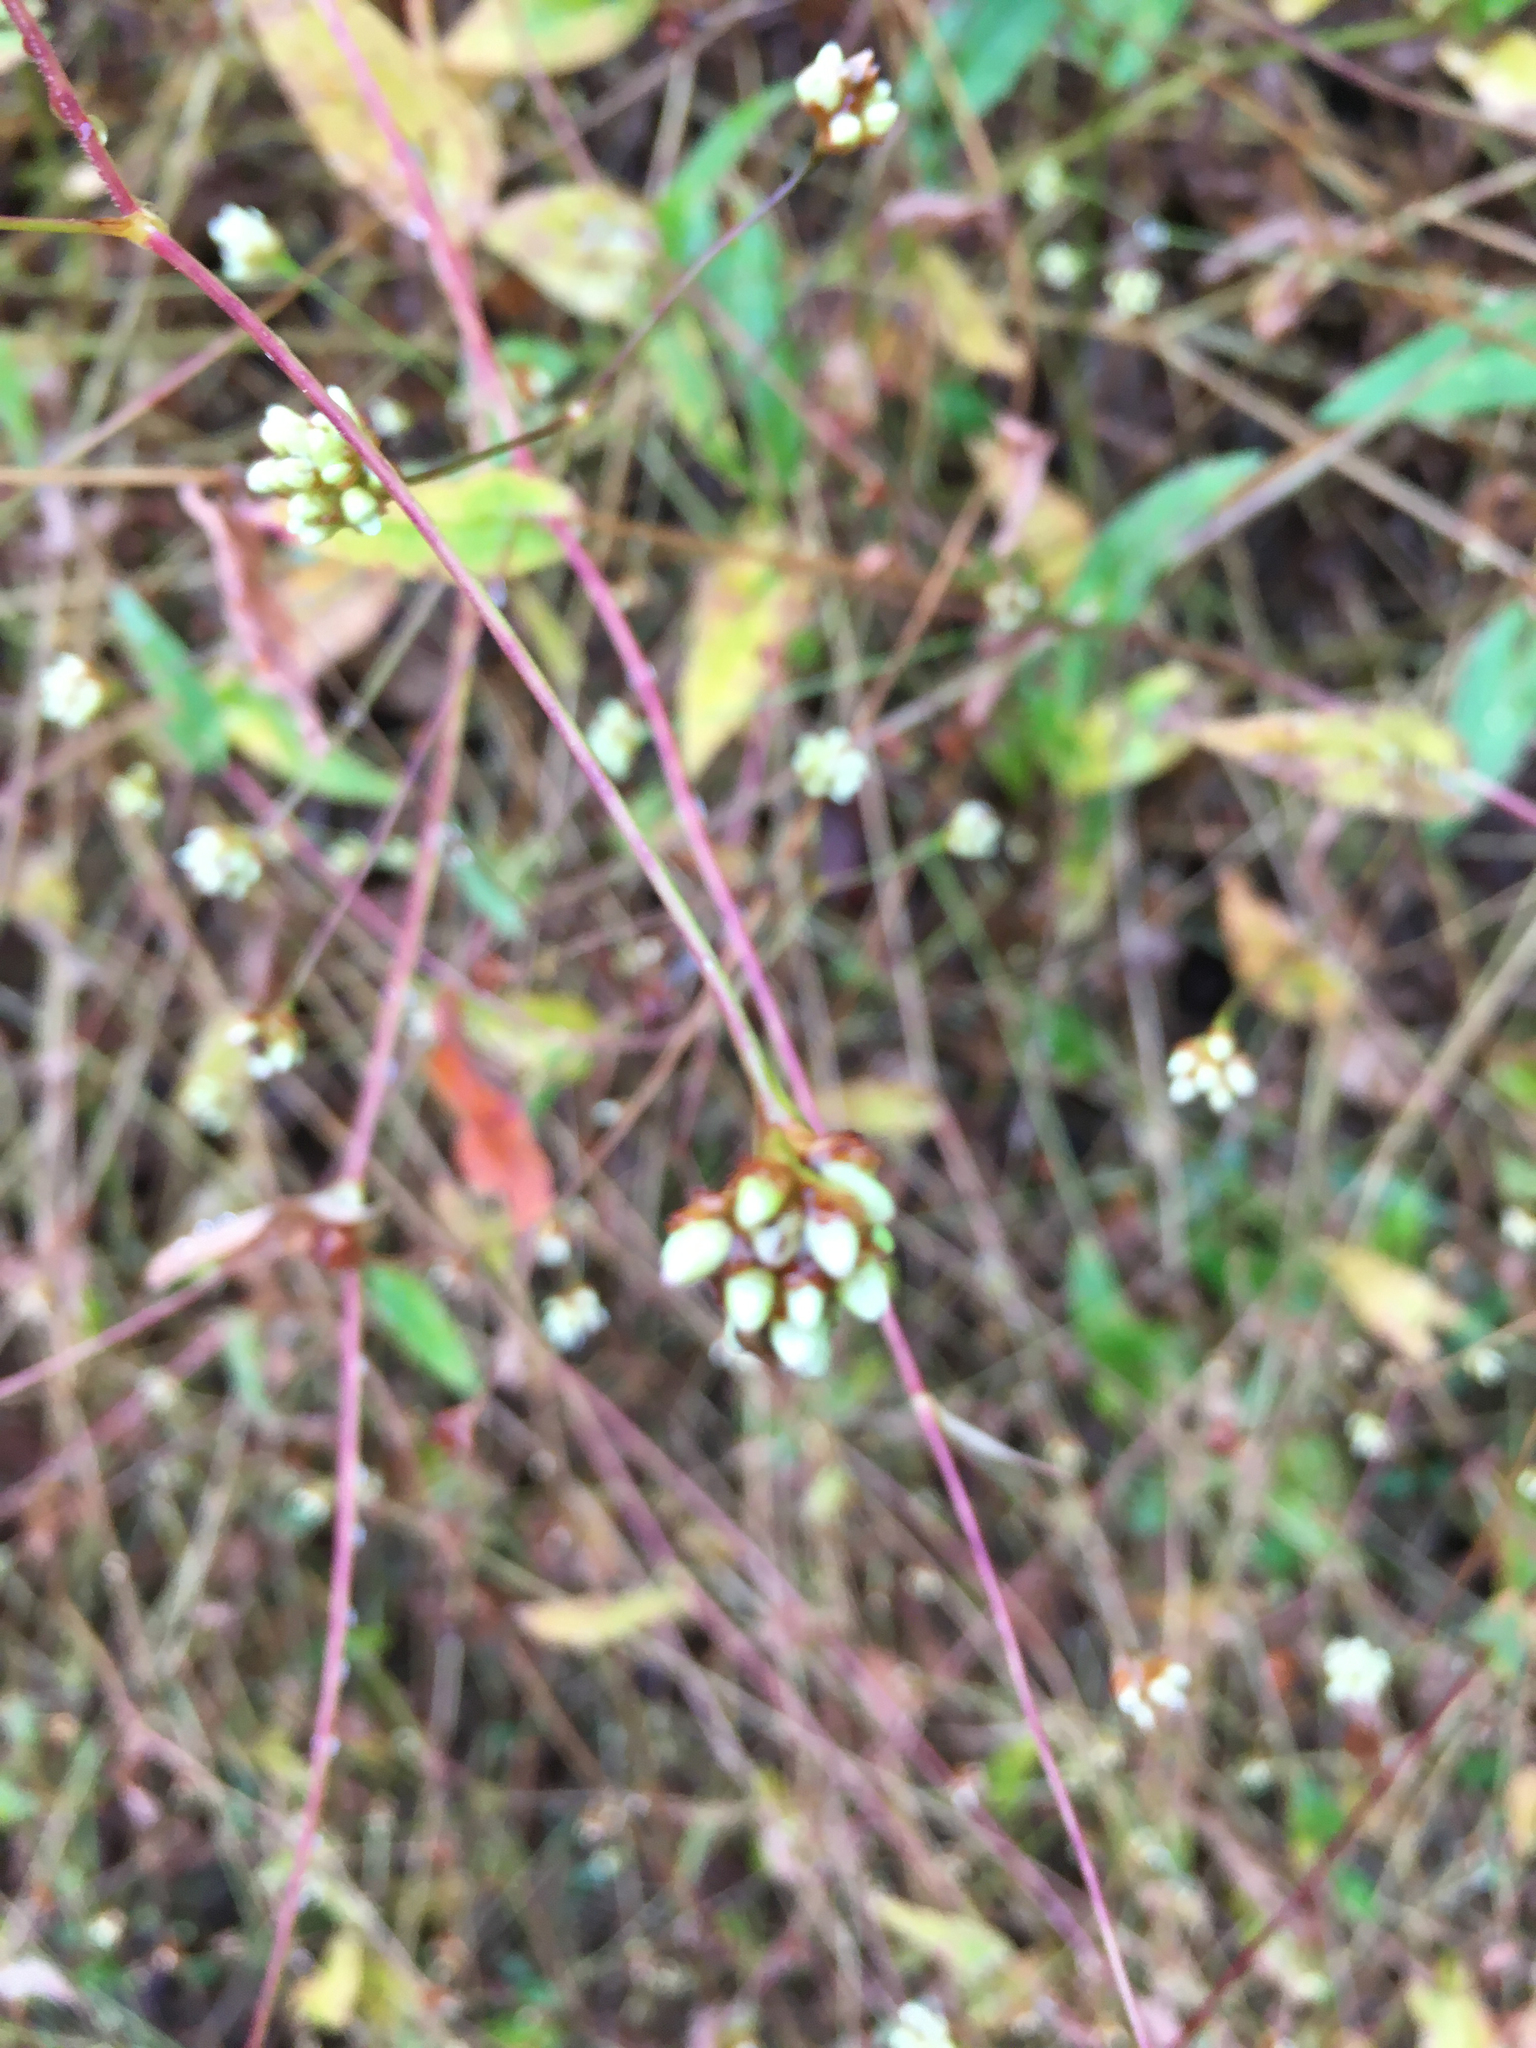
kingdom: Plantae
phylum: Tracheophyta
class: Magnoliopsida
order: Caryophyllales
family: Polygonaceae
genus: Persicaria
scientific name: Persicaria sagittata
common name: American tearthumb
